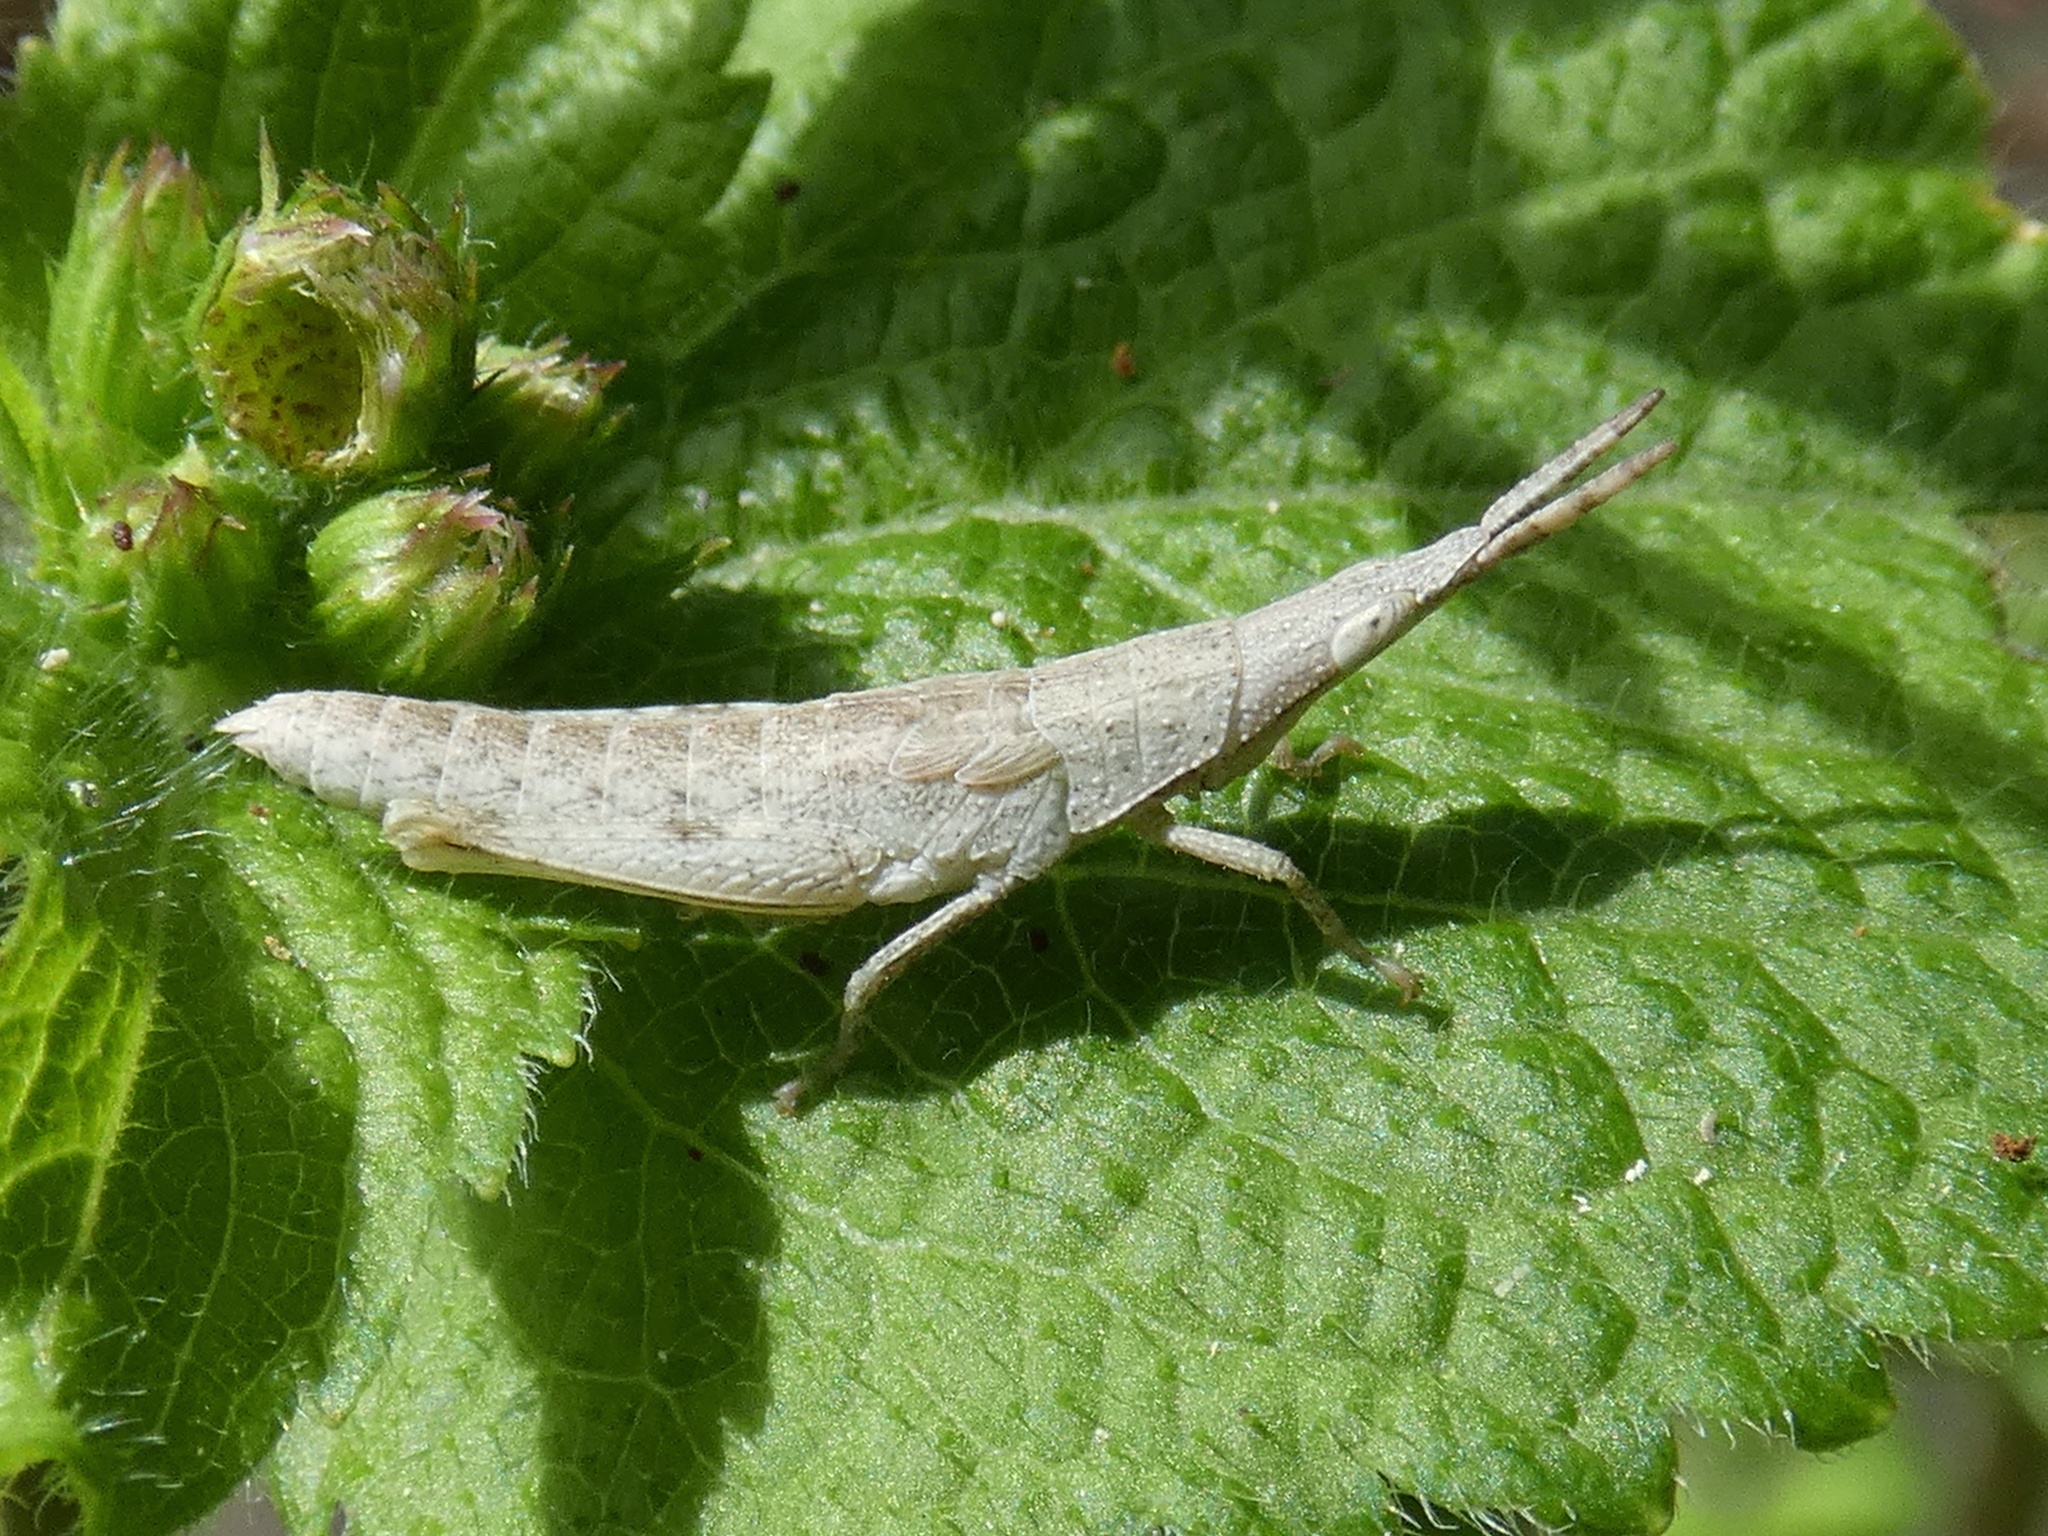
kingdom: Animalia
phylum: Arthropoda
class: Insecta
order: Orthoptera
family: Pyrgomorphidae
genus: Atractomorpha
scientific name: Atractomorpha similis
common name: Northern grass pyrgomorph
